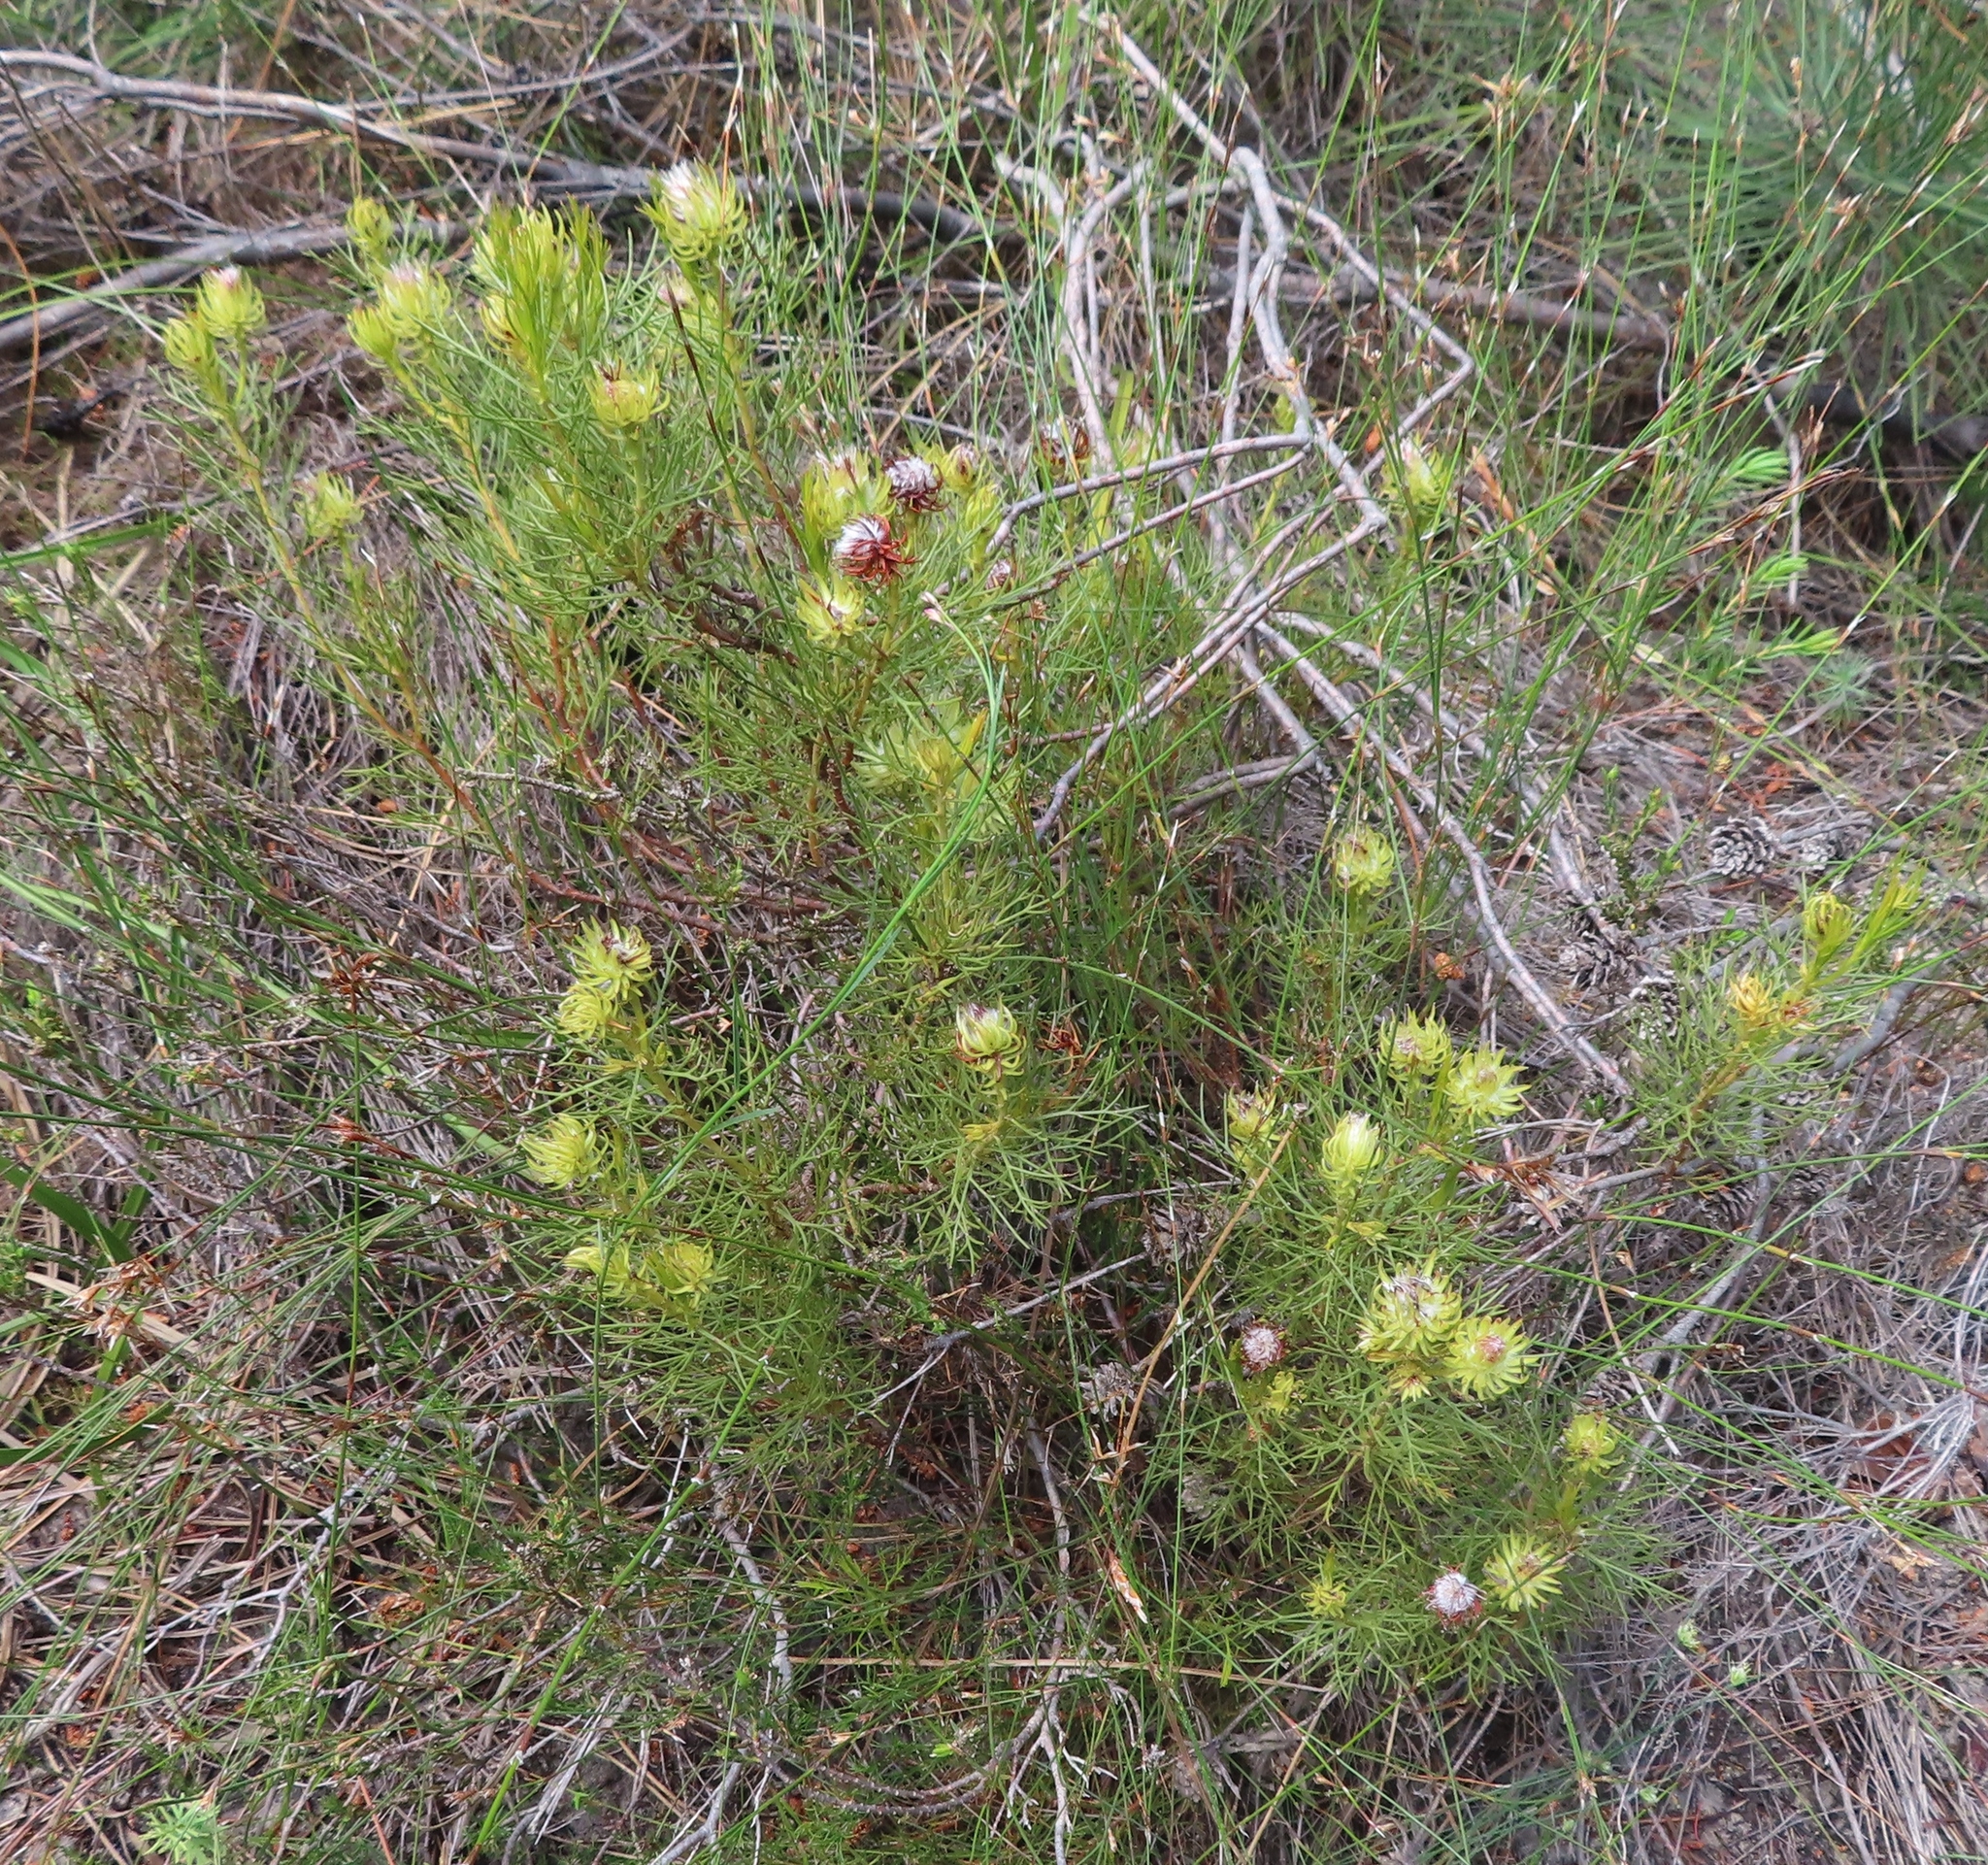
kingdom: Plantae
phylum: Tracheophyta
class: Magnoliopsida
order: Proteales
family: Proteaceae
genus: Serruria
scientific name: Serruria phylicoides
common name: Bearded spiderhead
